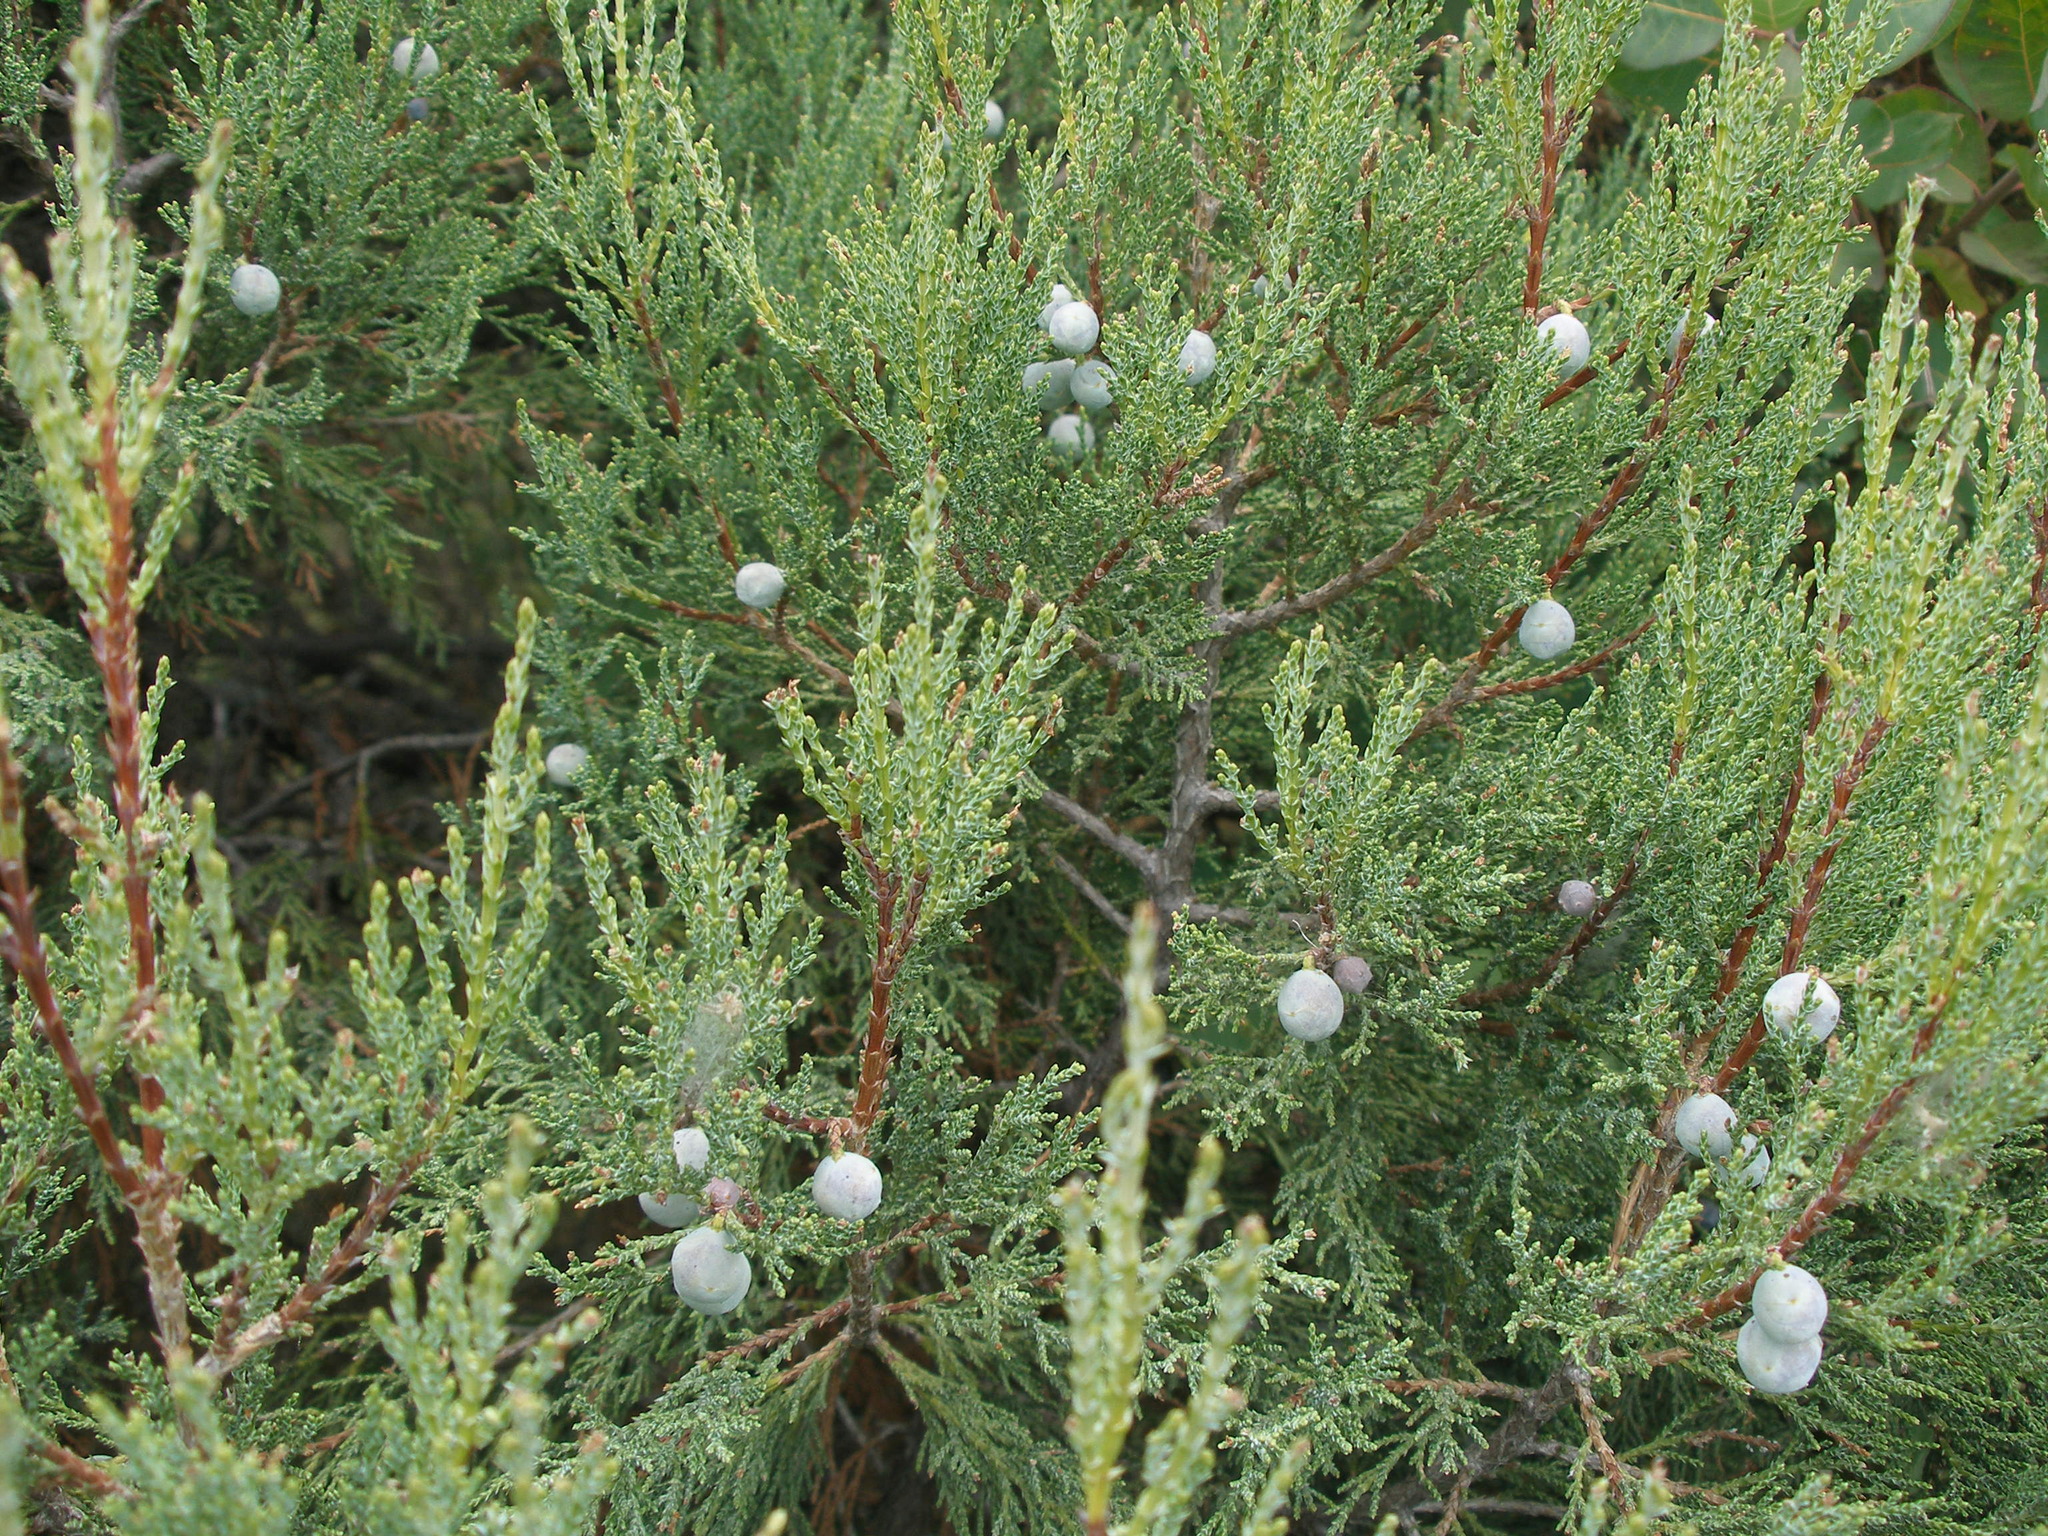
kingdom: Plantae
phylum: Tracheophyta
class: Pinopsida
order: Pinales
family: Cupressaceae
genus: Juniperus
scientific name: Juniperus excelsa
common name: Crimean juniper
